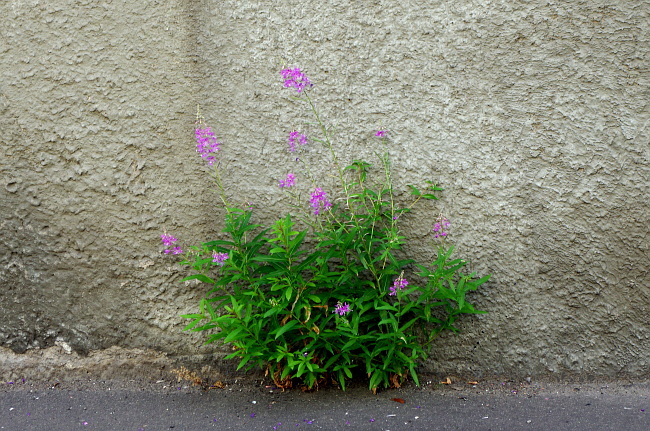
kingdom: Plantae
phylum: Tracheophyta
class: Magnoliopsida
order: Myrtales
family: Onagraceae
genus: Chamaenerion
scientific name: Chamaenerion angustifolium
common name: Fireweed
